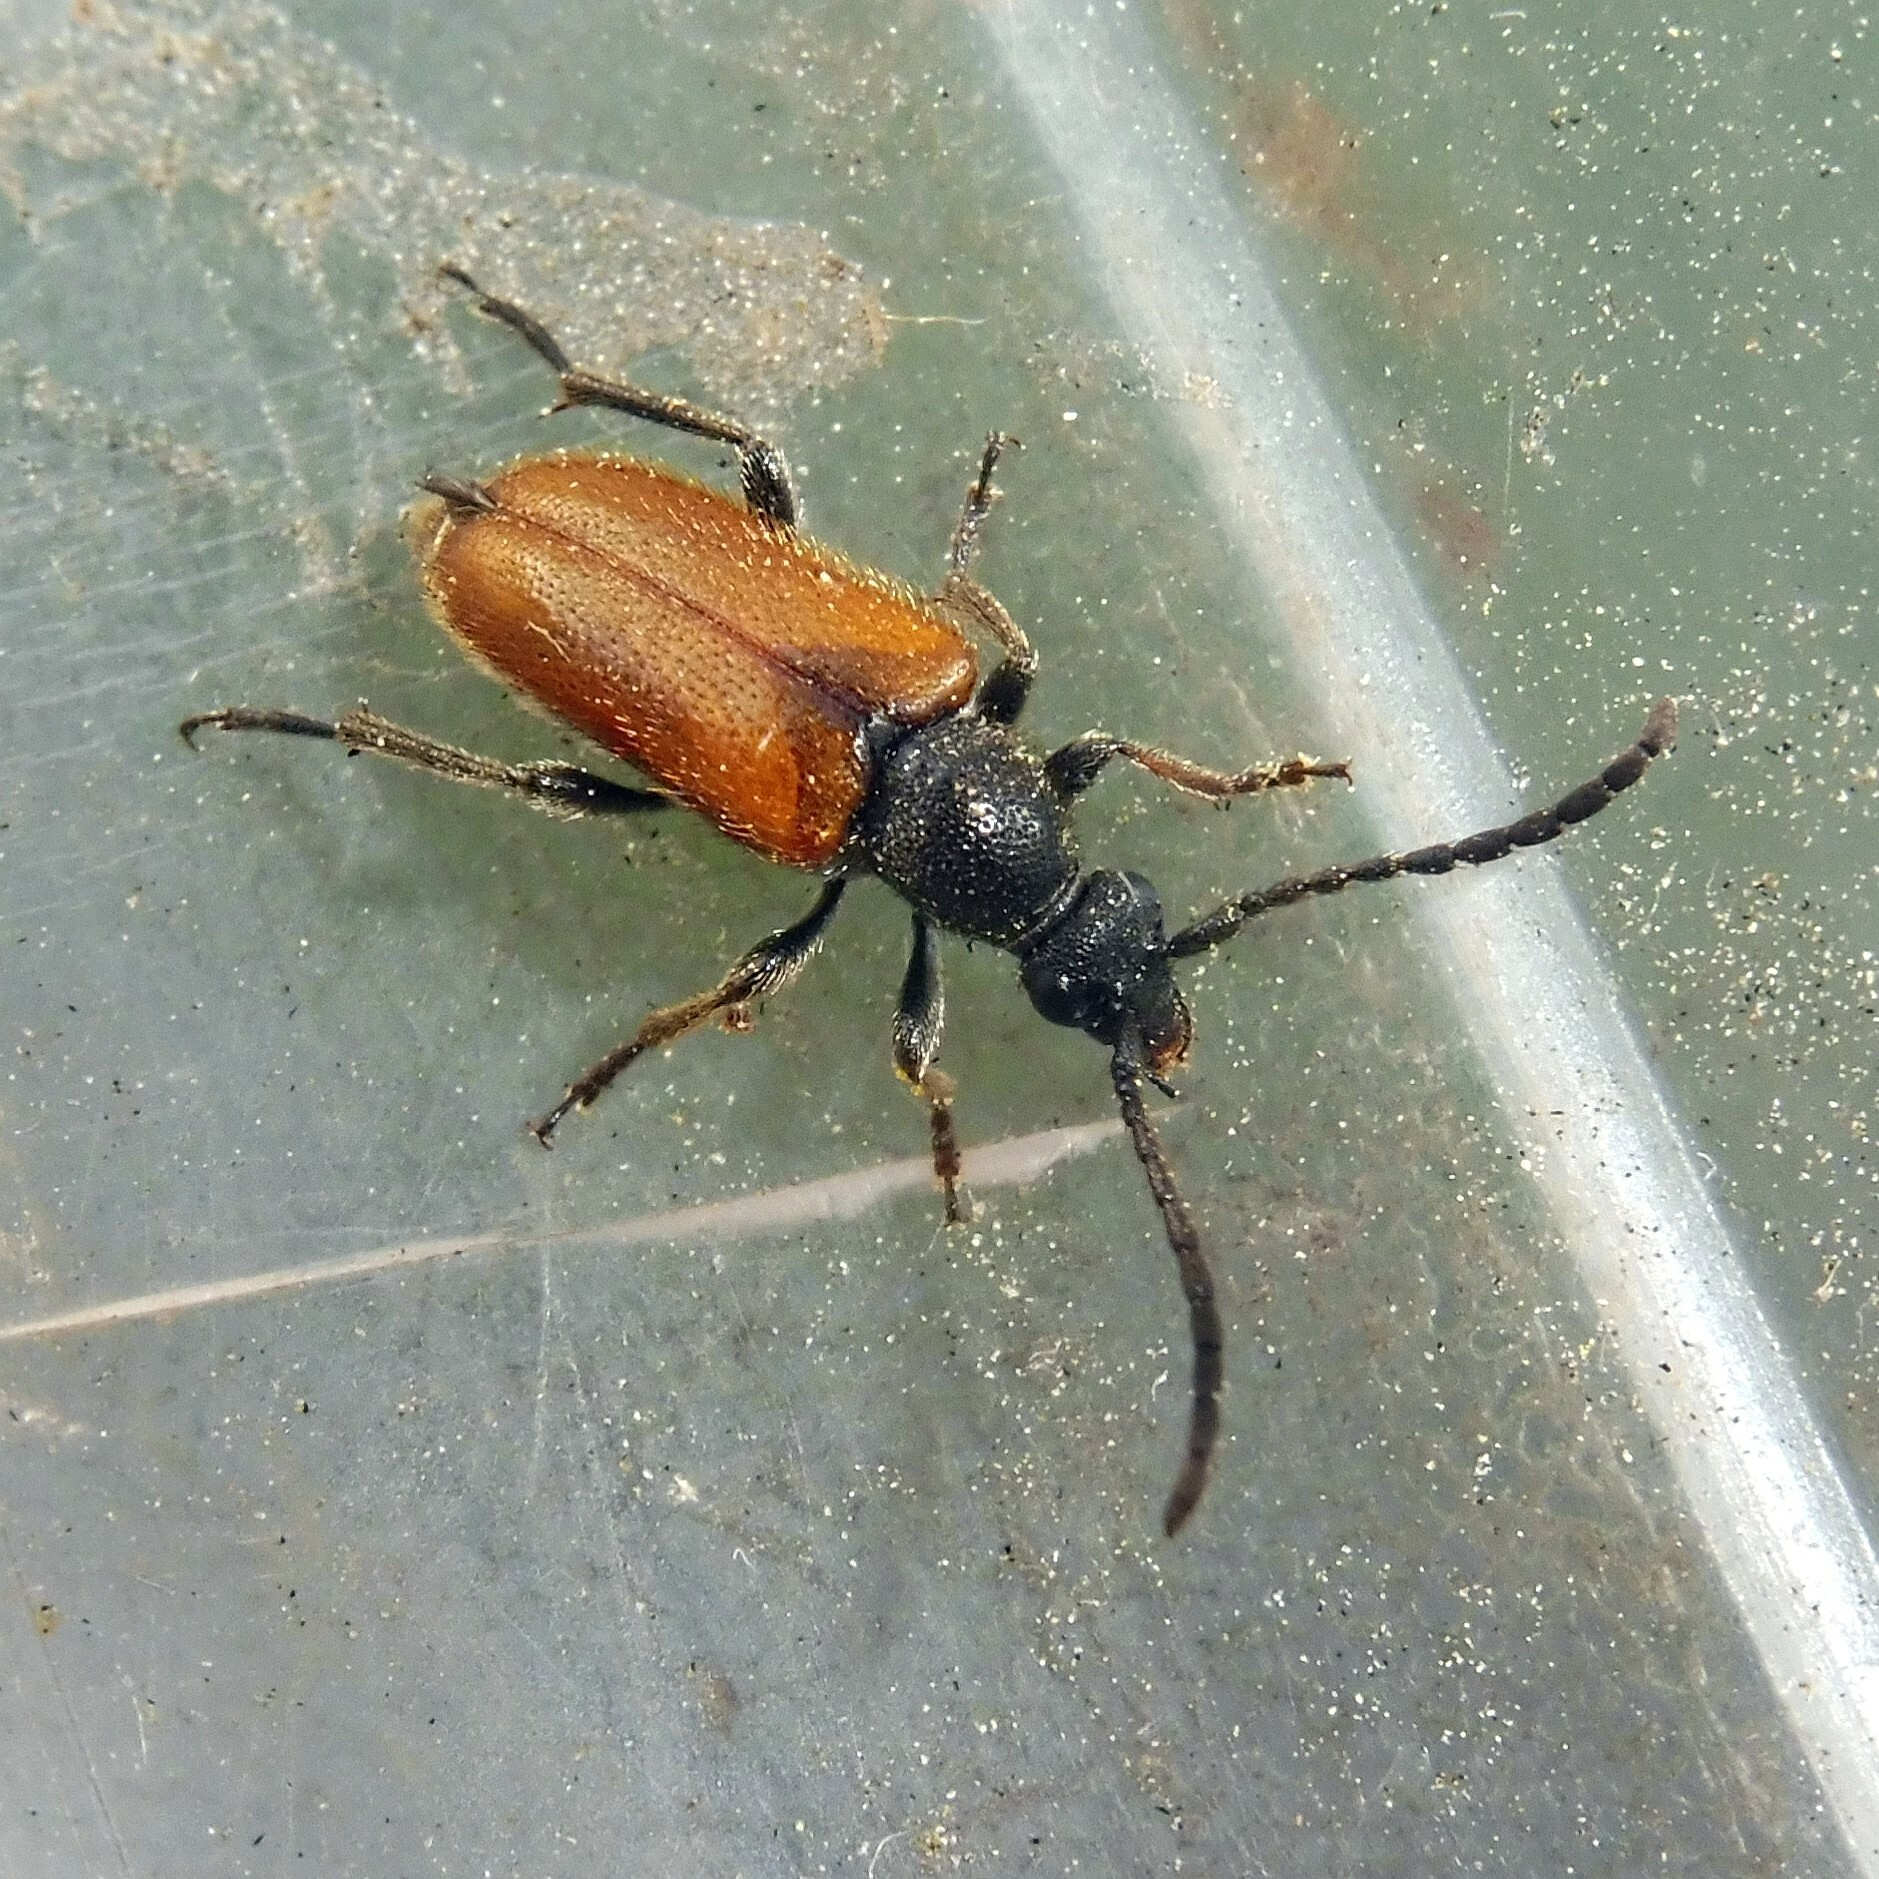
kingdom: Animalia
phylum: Arthropoda
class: Insecta
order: Coleoptera
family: Cerambycidae
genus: Pseudovadonia
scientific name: Pseudovadonia livida
